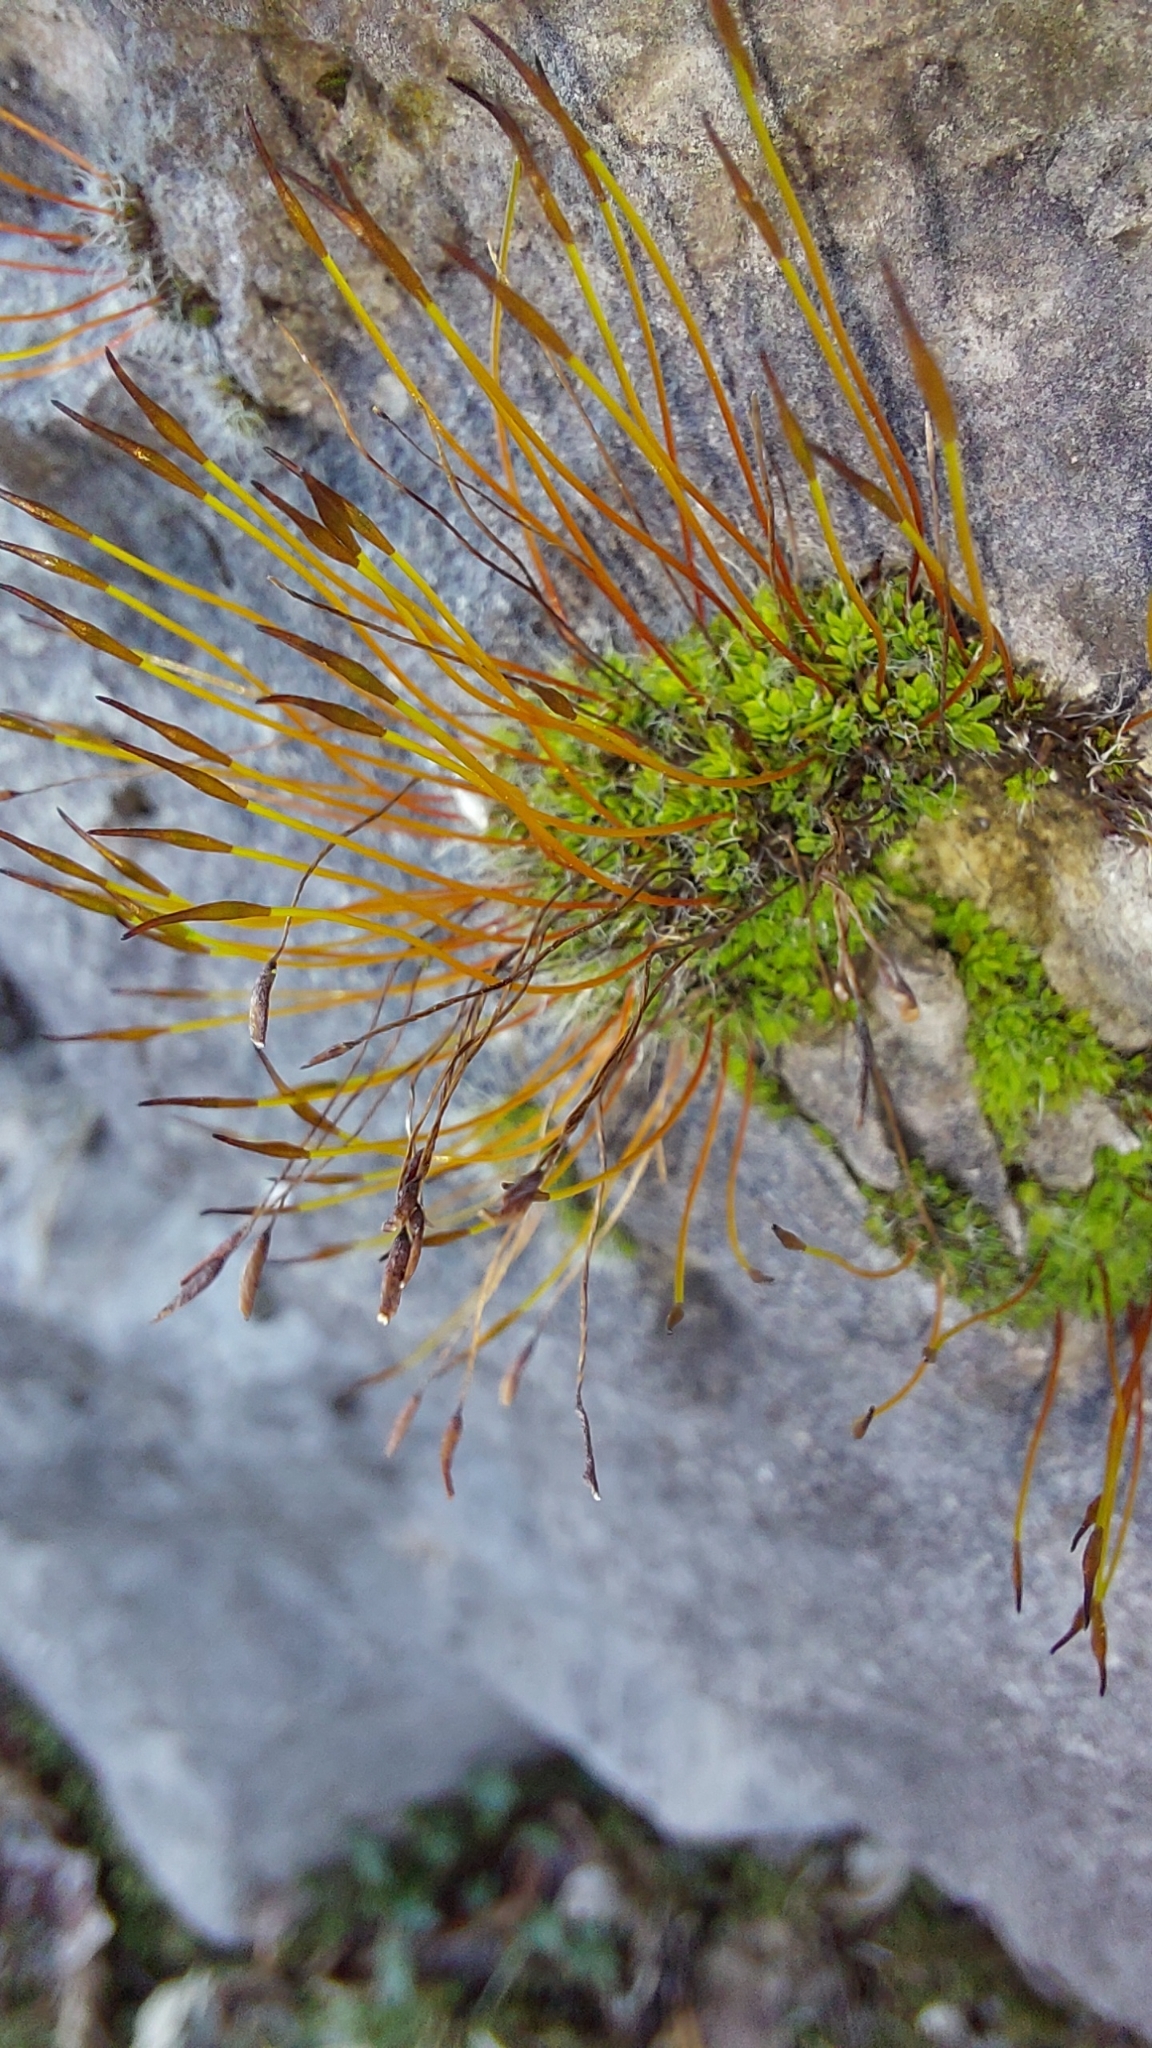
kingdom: Plantae
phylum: Bryophyta
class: Bryopsida
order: Pottiales
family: Pottiaceae
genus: Tortula
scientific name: Tortula muralis
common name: Wall screw-moss
